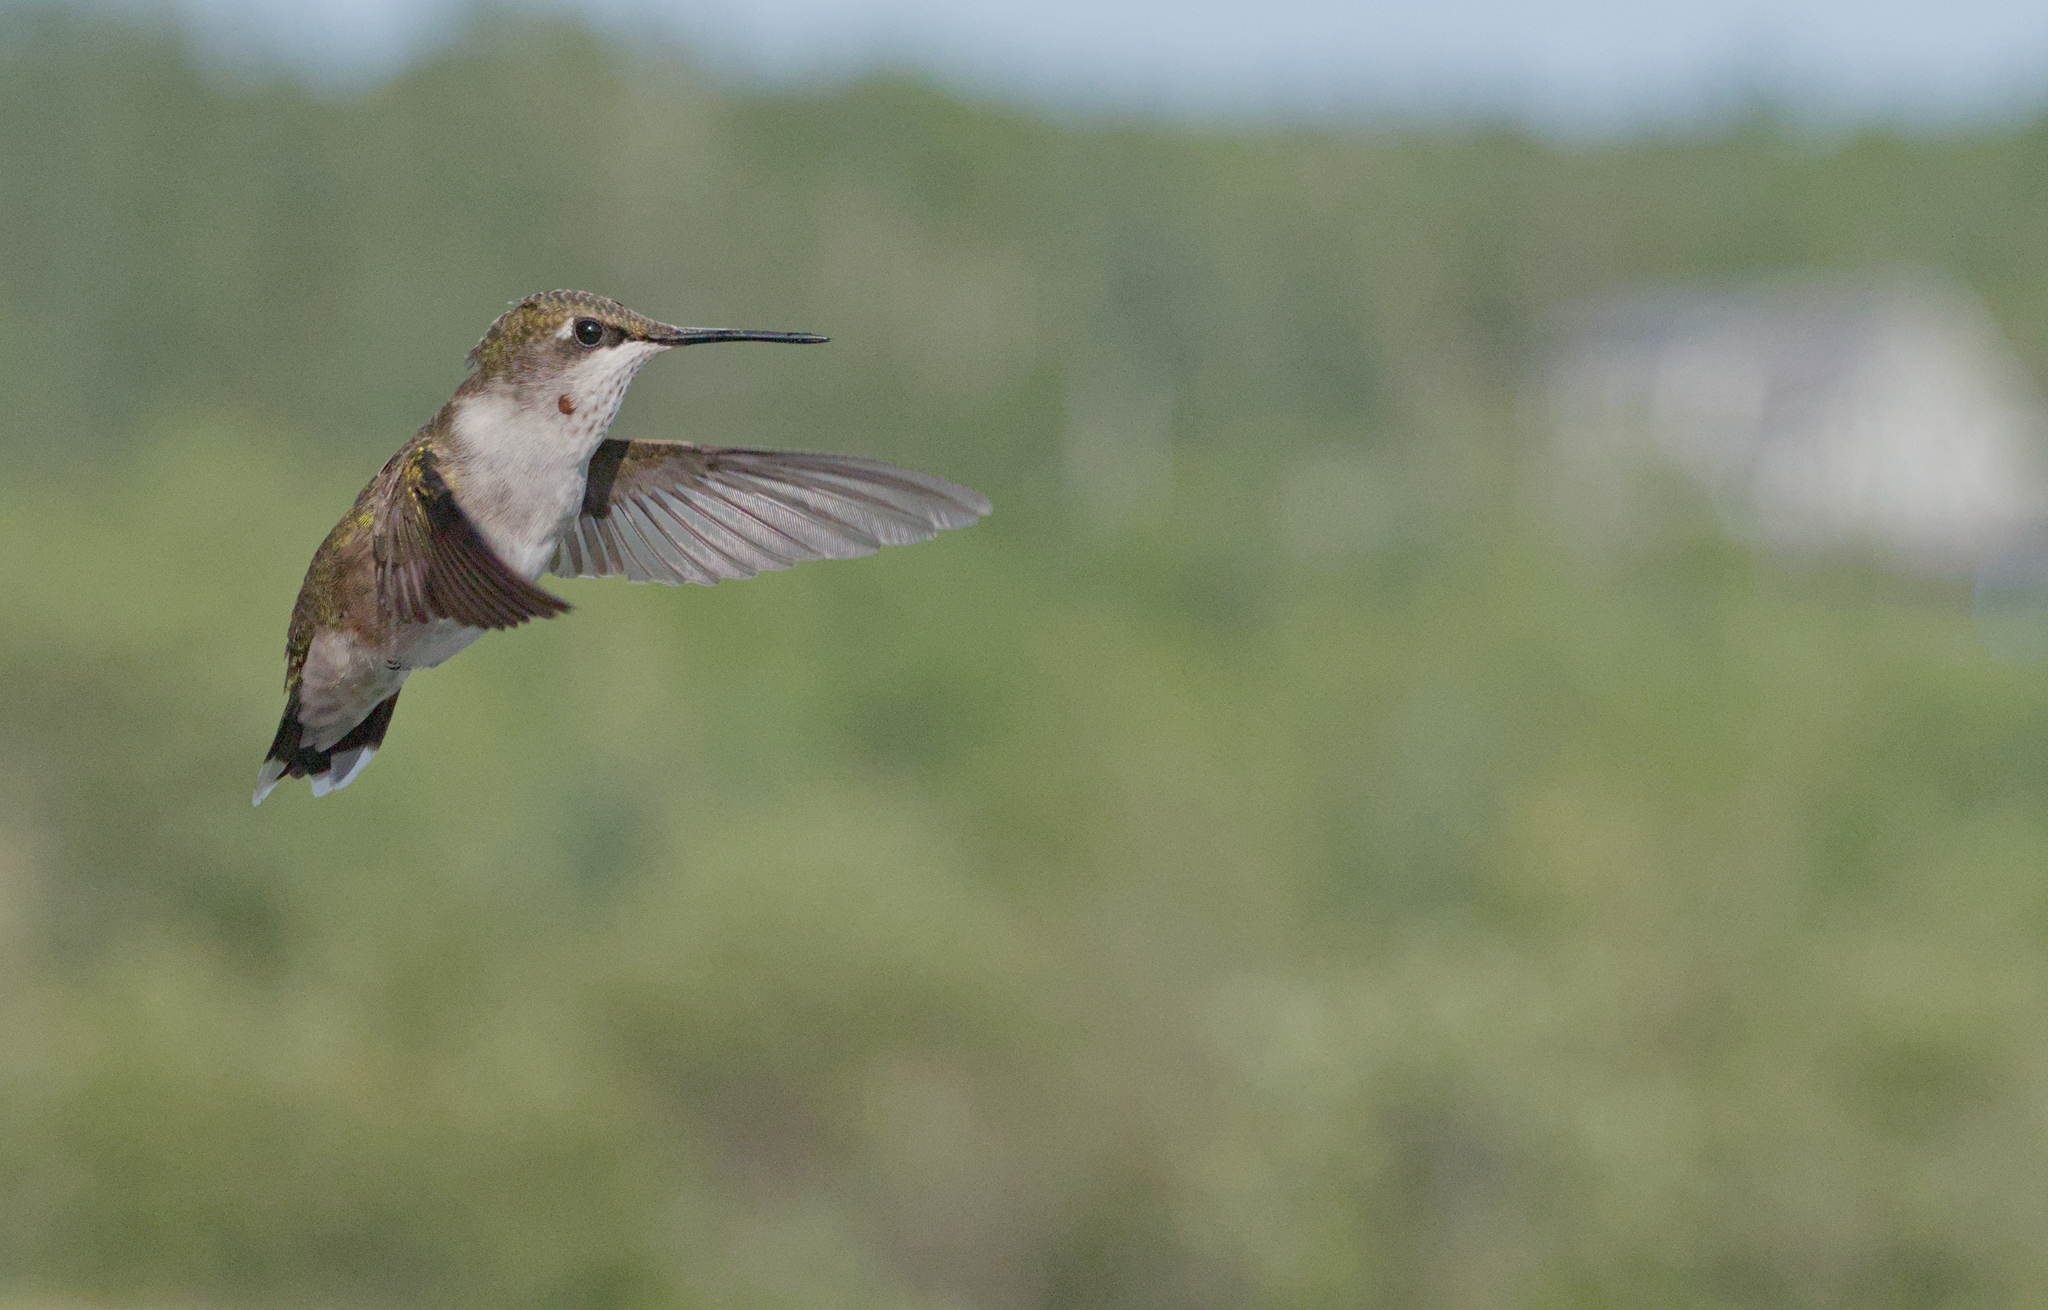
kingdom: Animalia
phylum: Chordata
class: Aves
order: Apodiformes
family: Trochilidae
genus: Archilochus
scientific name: Archilochus colubris
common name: Ruby-throated hummingbird
